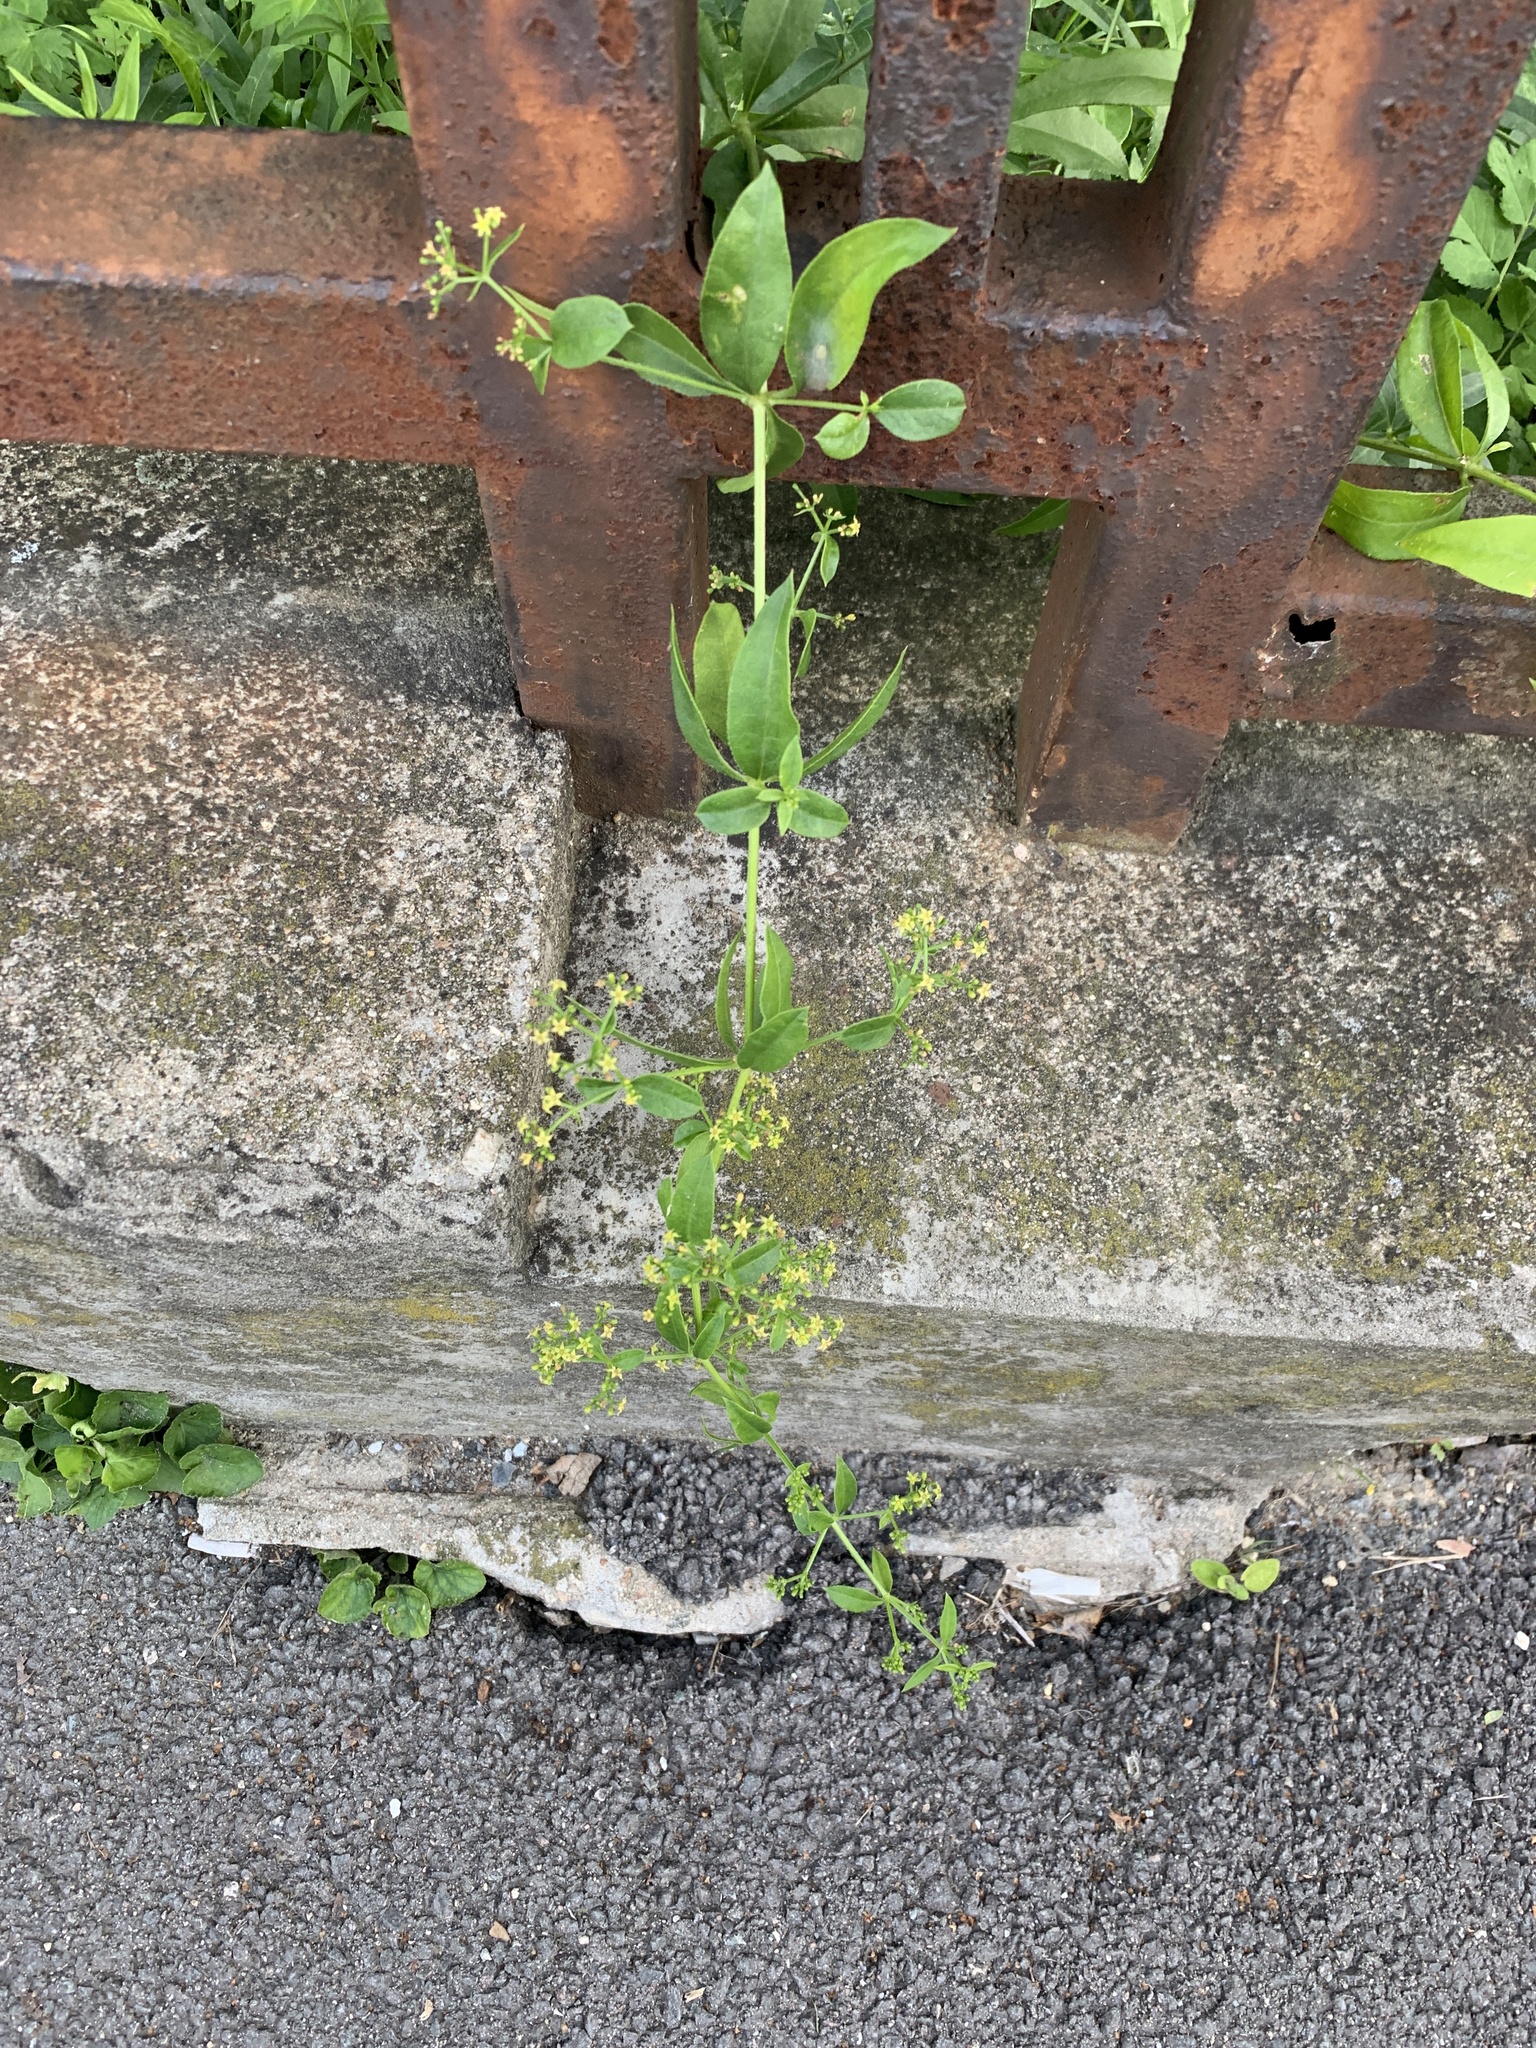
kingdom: Plantae
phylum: Tracheophyta
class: Magnoliopsida
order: Gentianales
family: Rubiaceae
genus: Rubia
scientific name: Rubia tinctorum
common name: Dyer's madder
